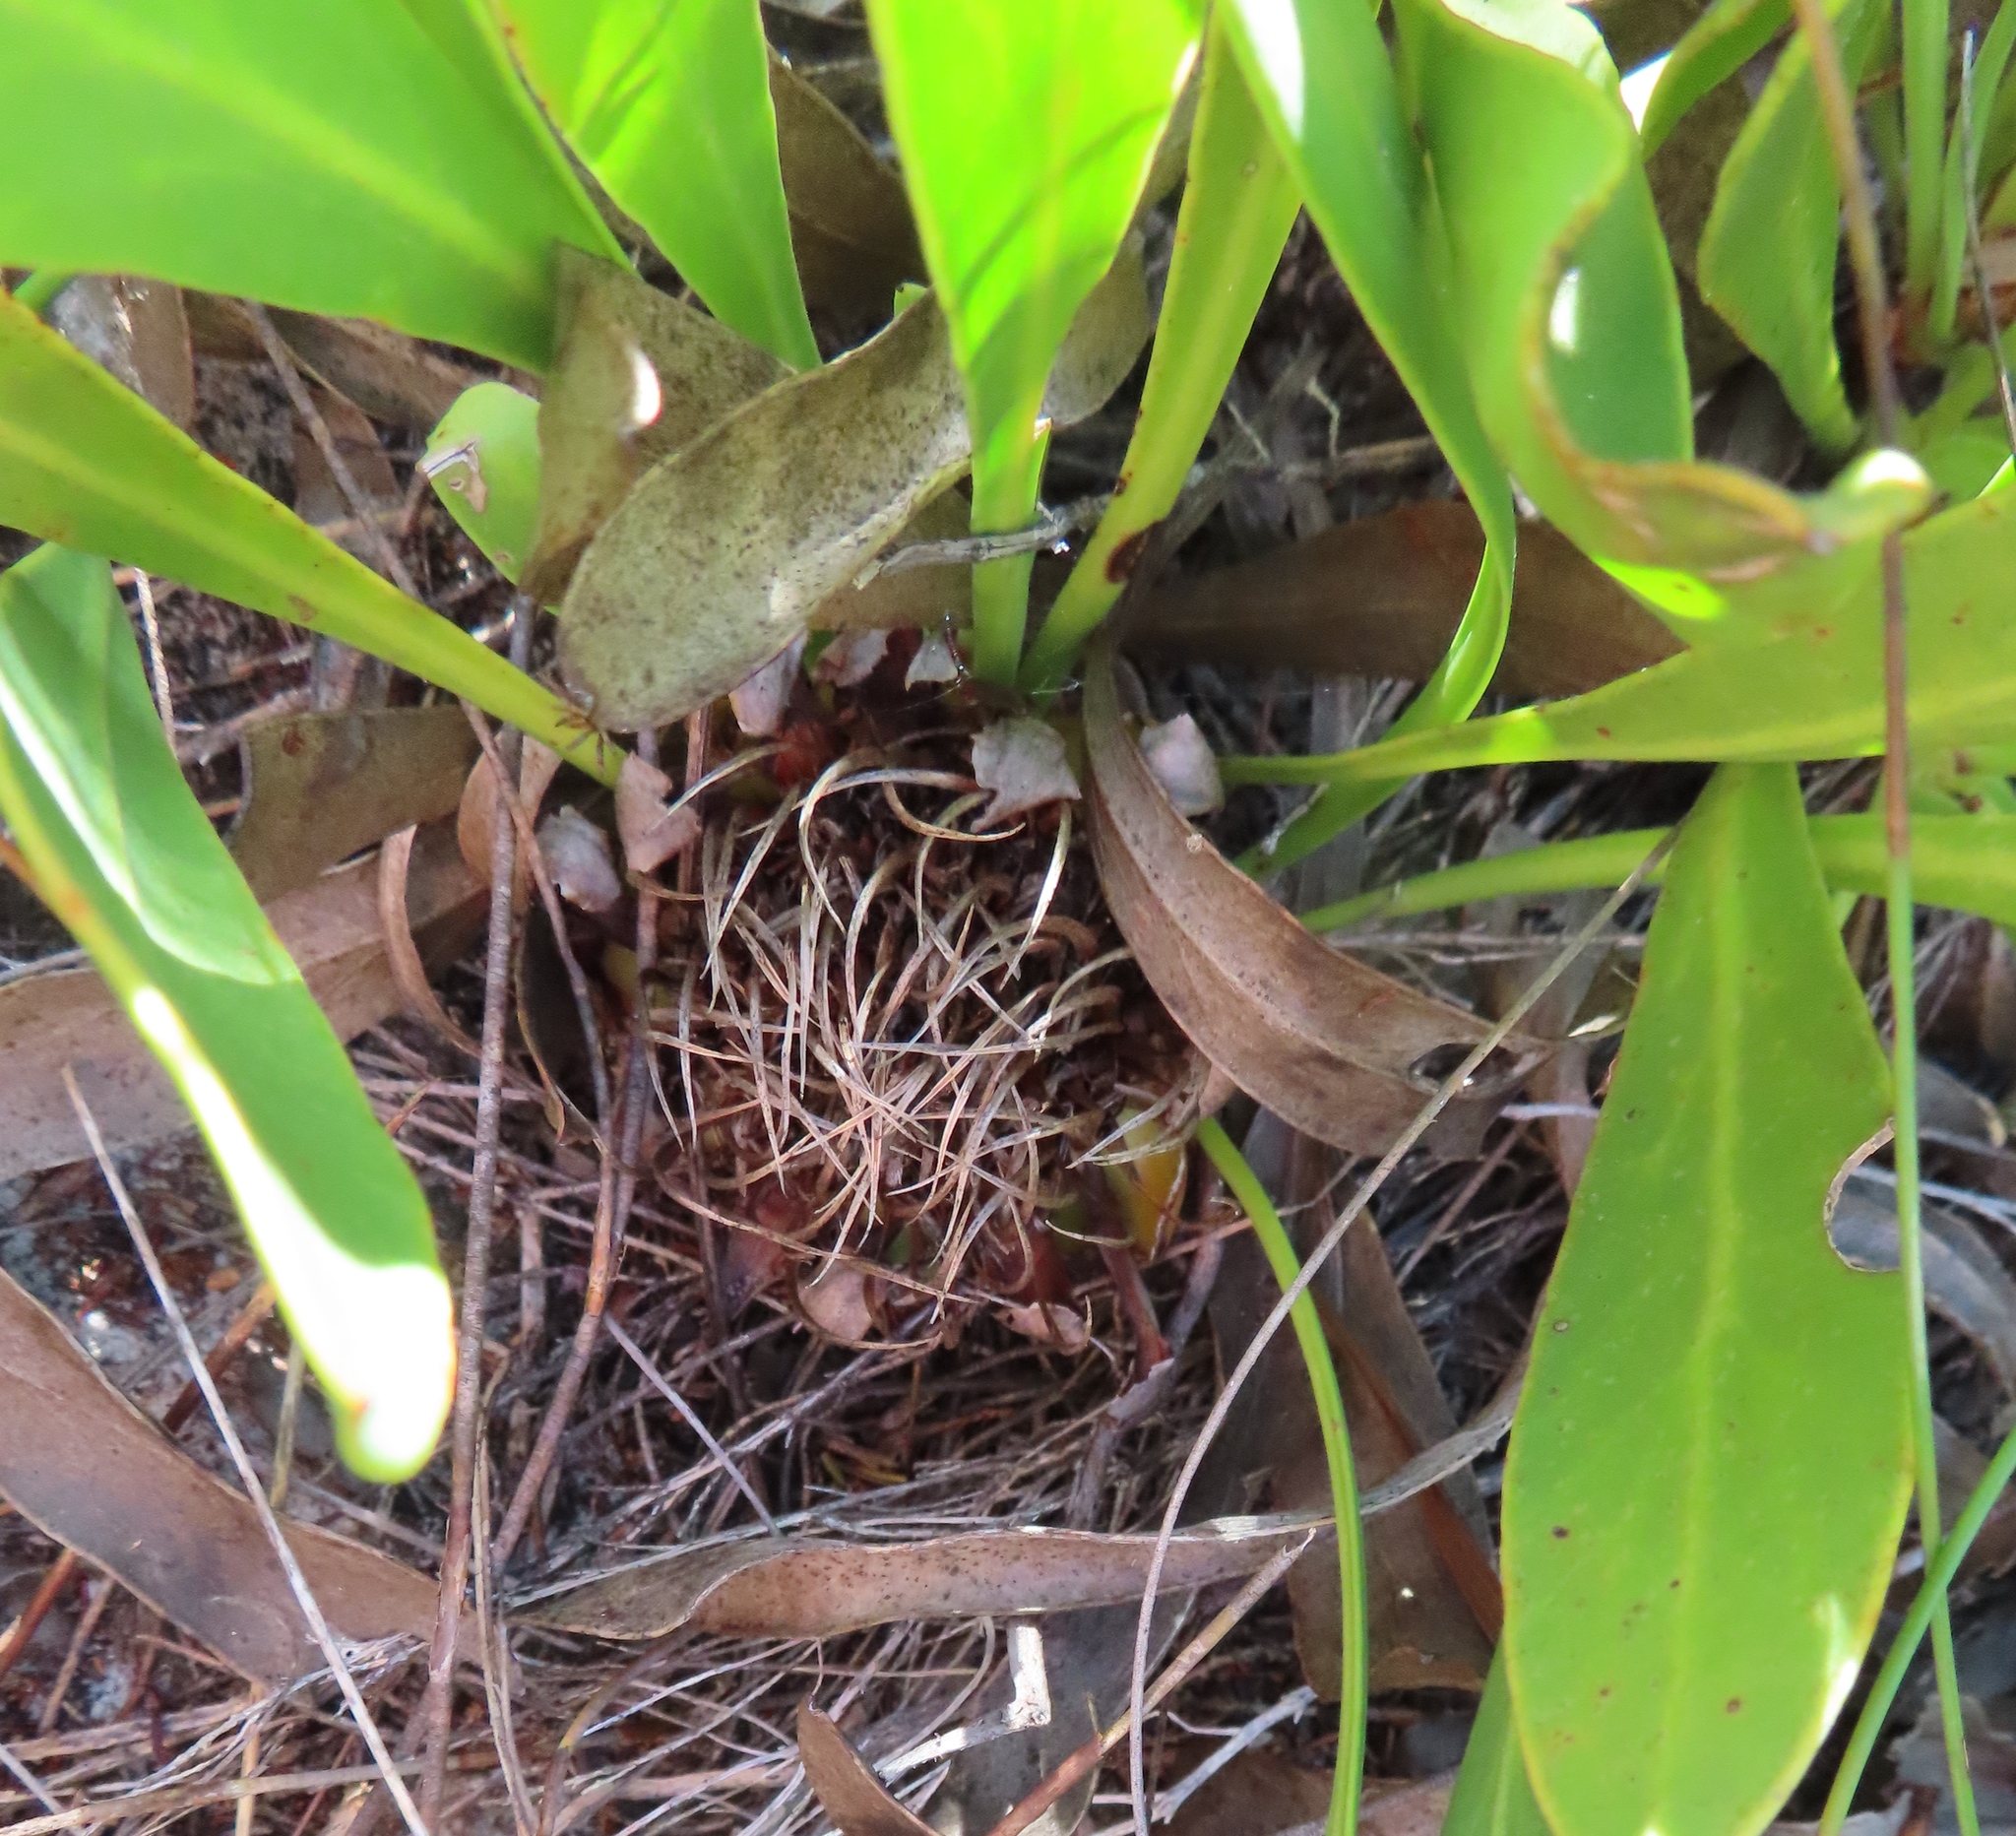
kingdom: Plantae
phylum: Tracheophyta
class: Magnoliopsida
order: Proteales
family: Proteaceae
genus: Protea
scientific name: Protea acaulos
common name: Common ground sugarbush
